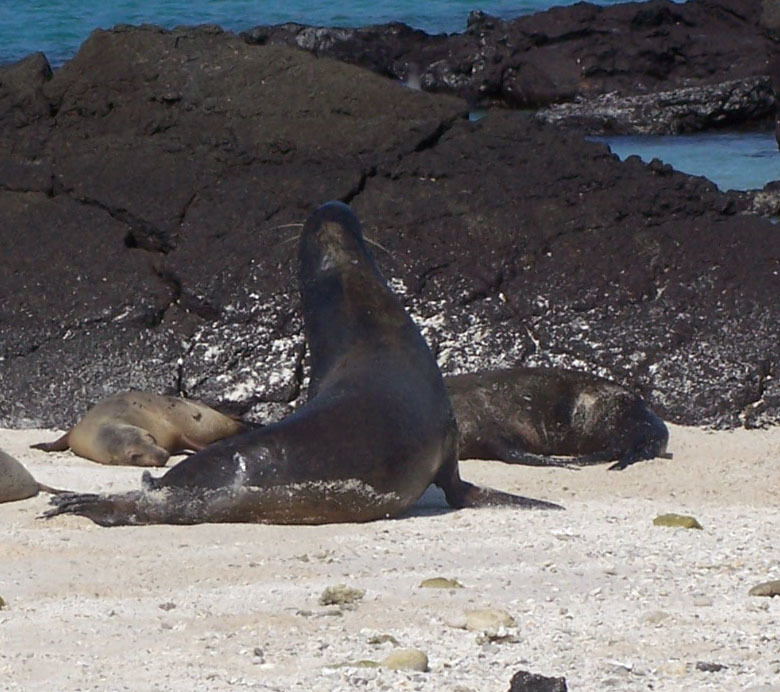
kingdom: Animalia
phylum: Chordata
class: Mammalia
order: Carnivora
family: Otariidae
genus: Zalophus
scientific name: Zalophus wollebaeki
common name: Galapagos sea lion
